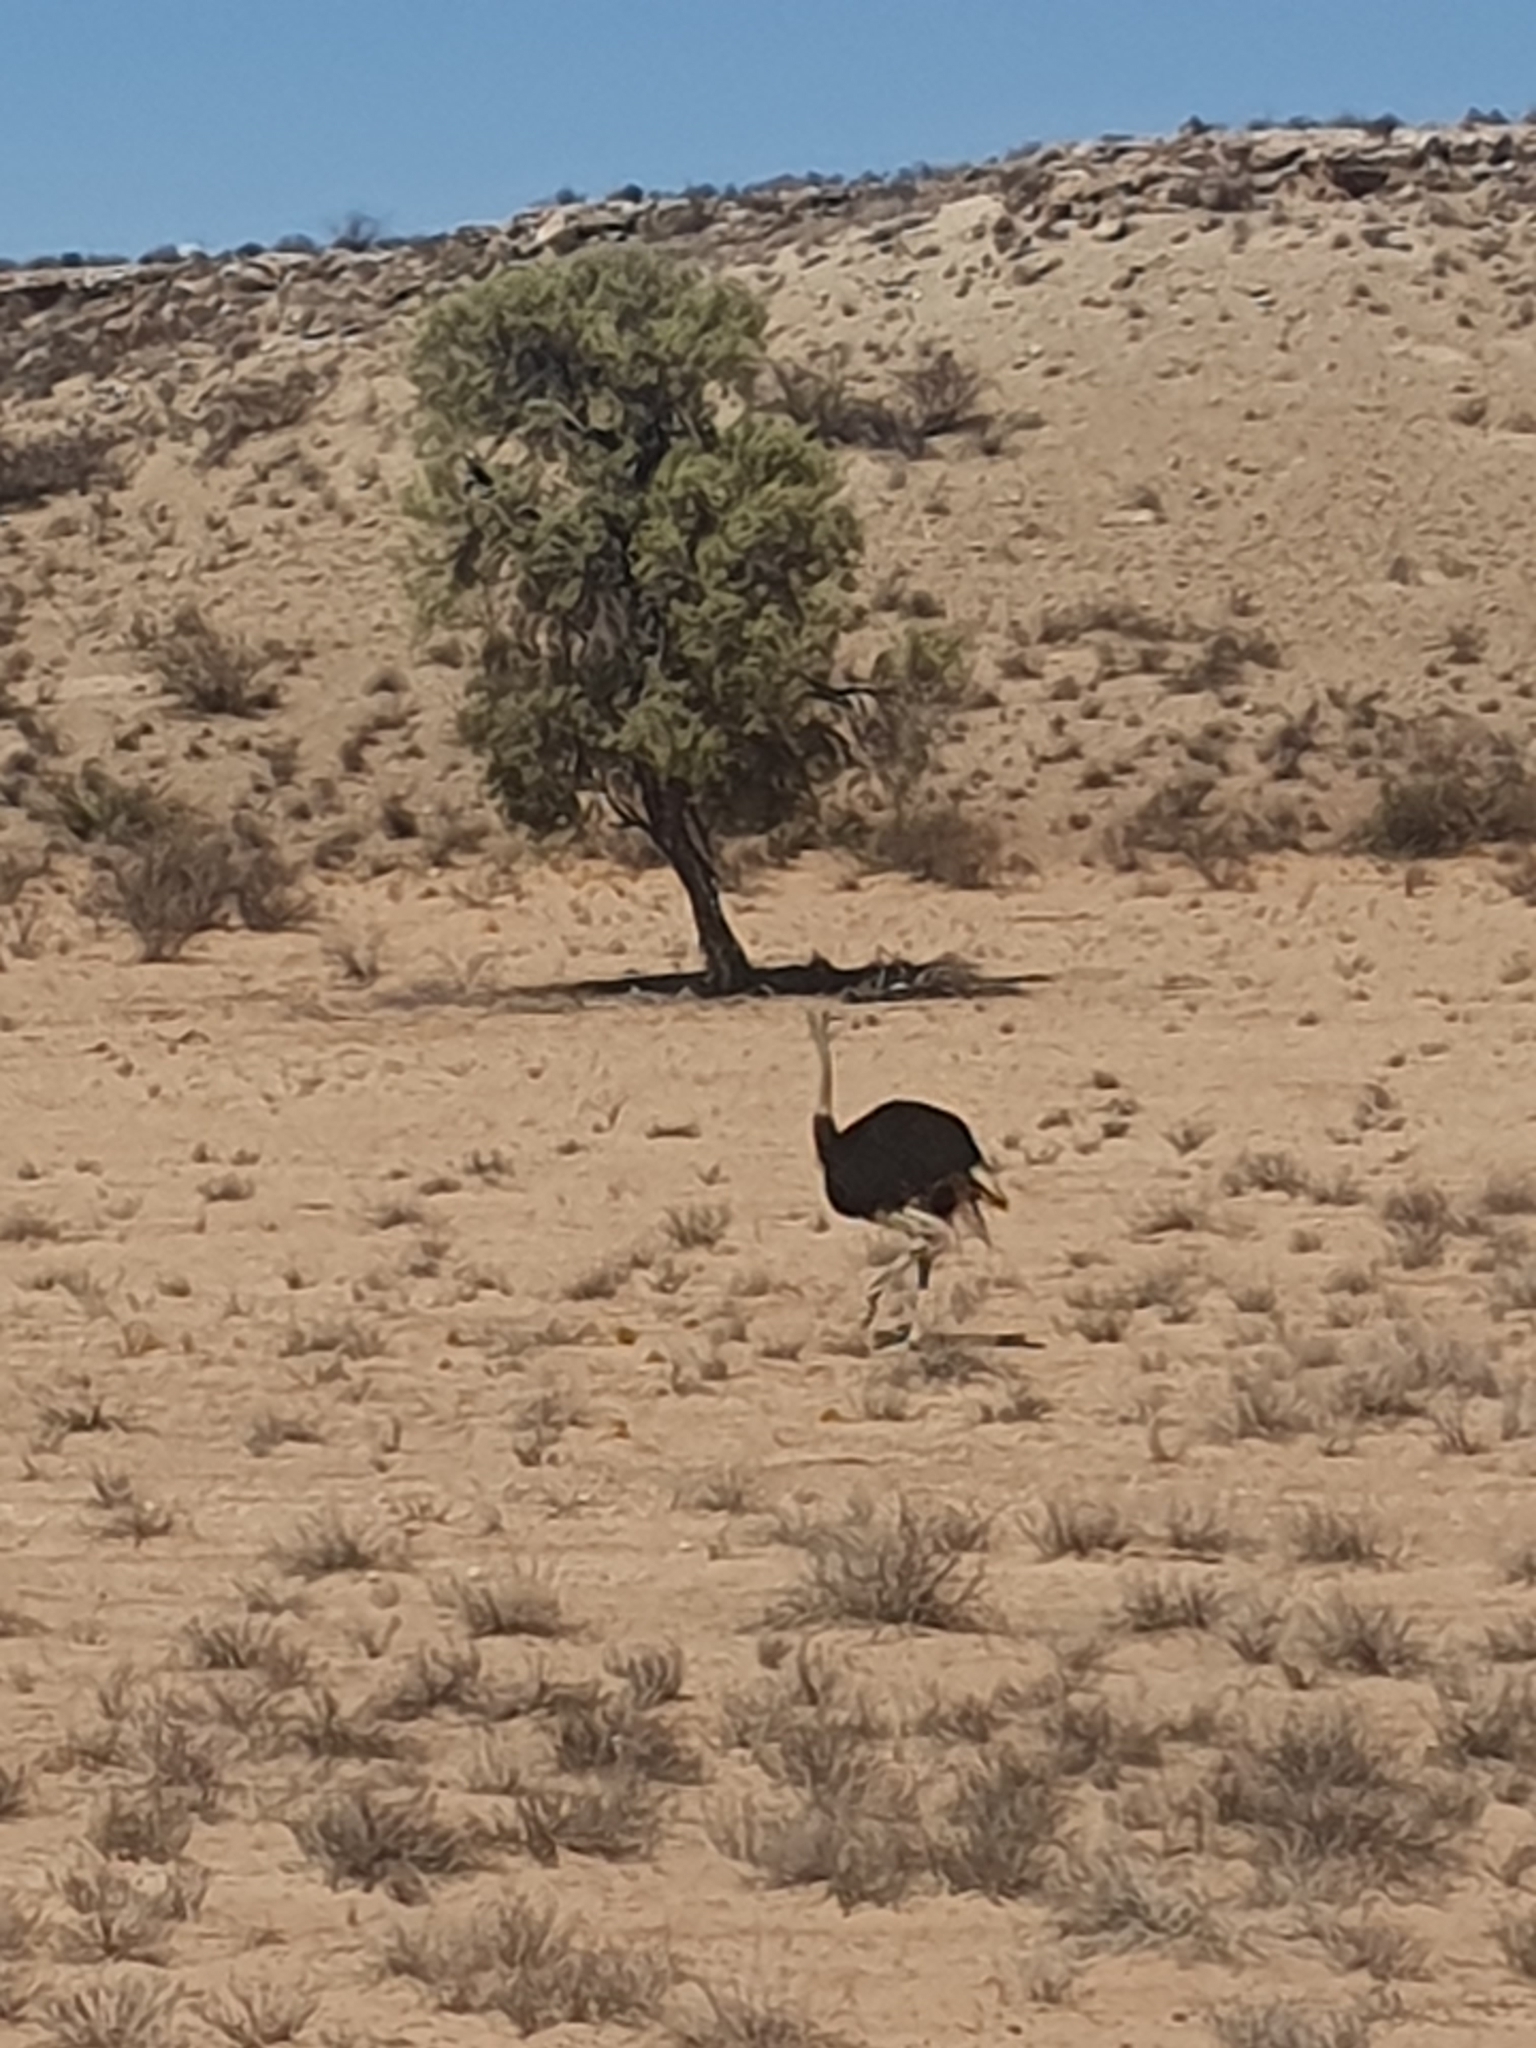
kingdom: Animalia
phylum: Chordata
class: Aves
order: Struthioniformes
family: Struthionidae
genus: Struthio
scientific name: Struthio camelus
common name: Common ostrich
